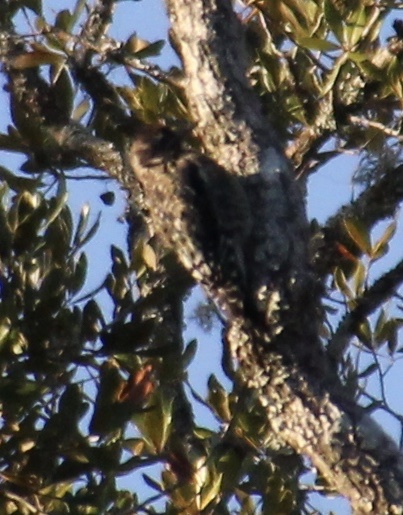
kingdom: Animalia
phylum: Chordata
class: Aves
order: Piciformes
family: Picidae
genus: Sphyrapicus
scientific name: Sphyrapicus varius
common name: Yellow-bellied sapsucker
